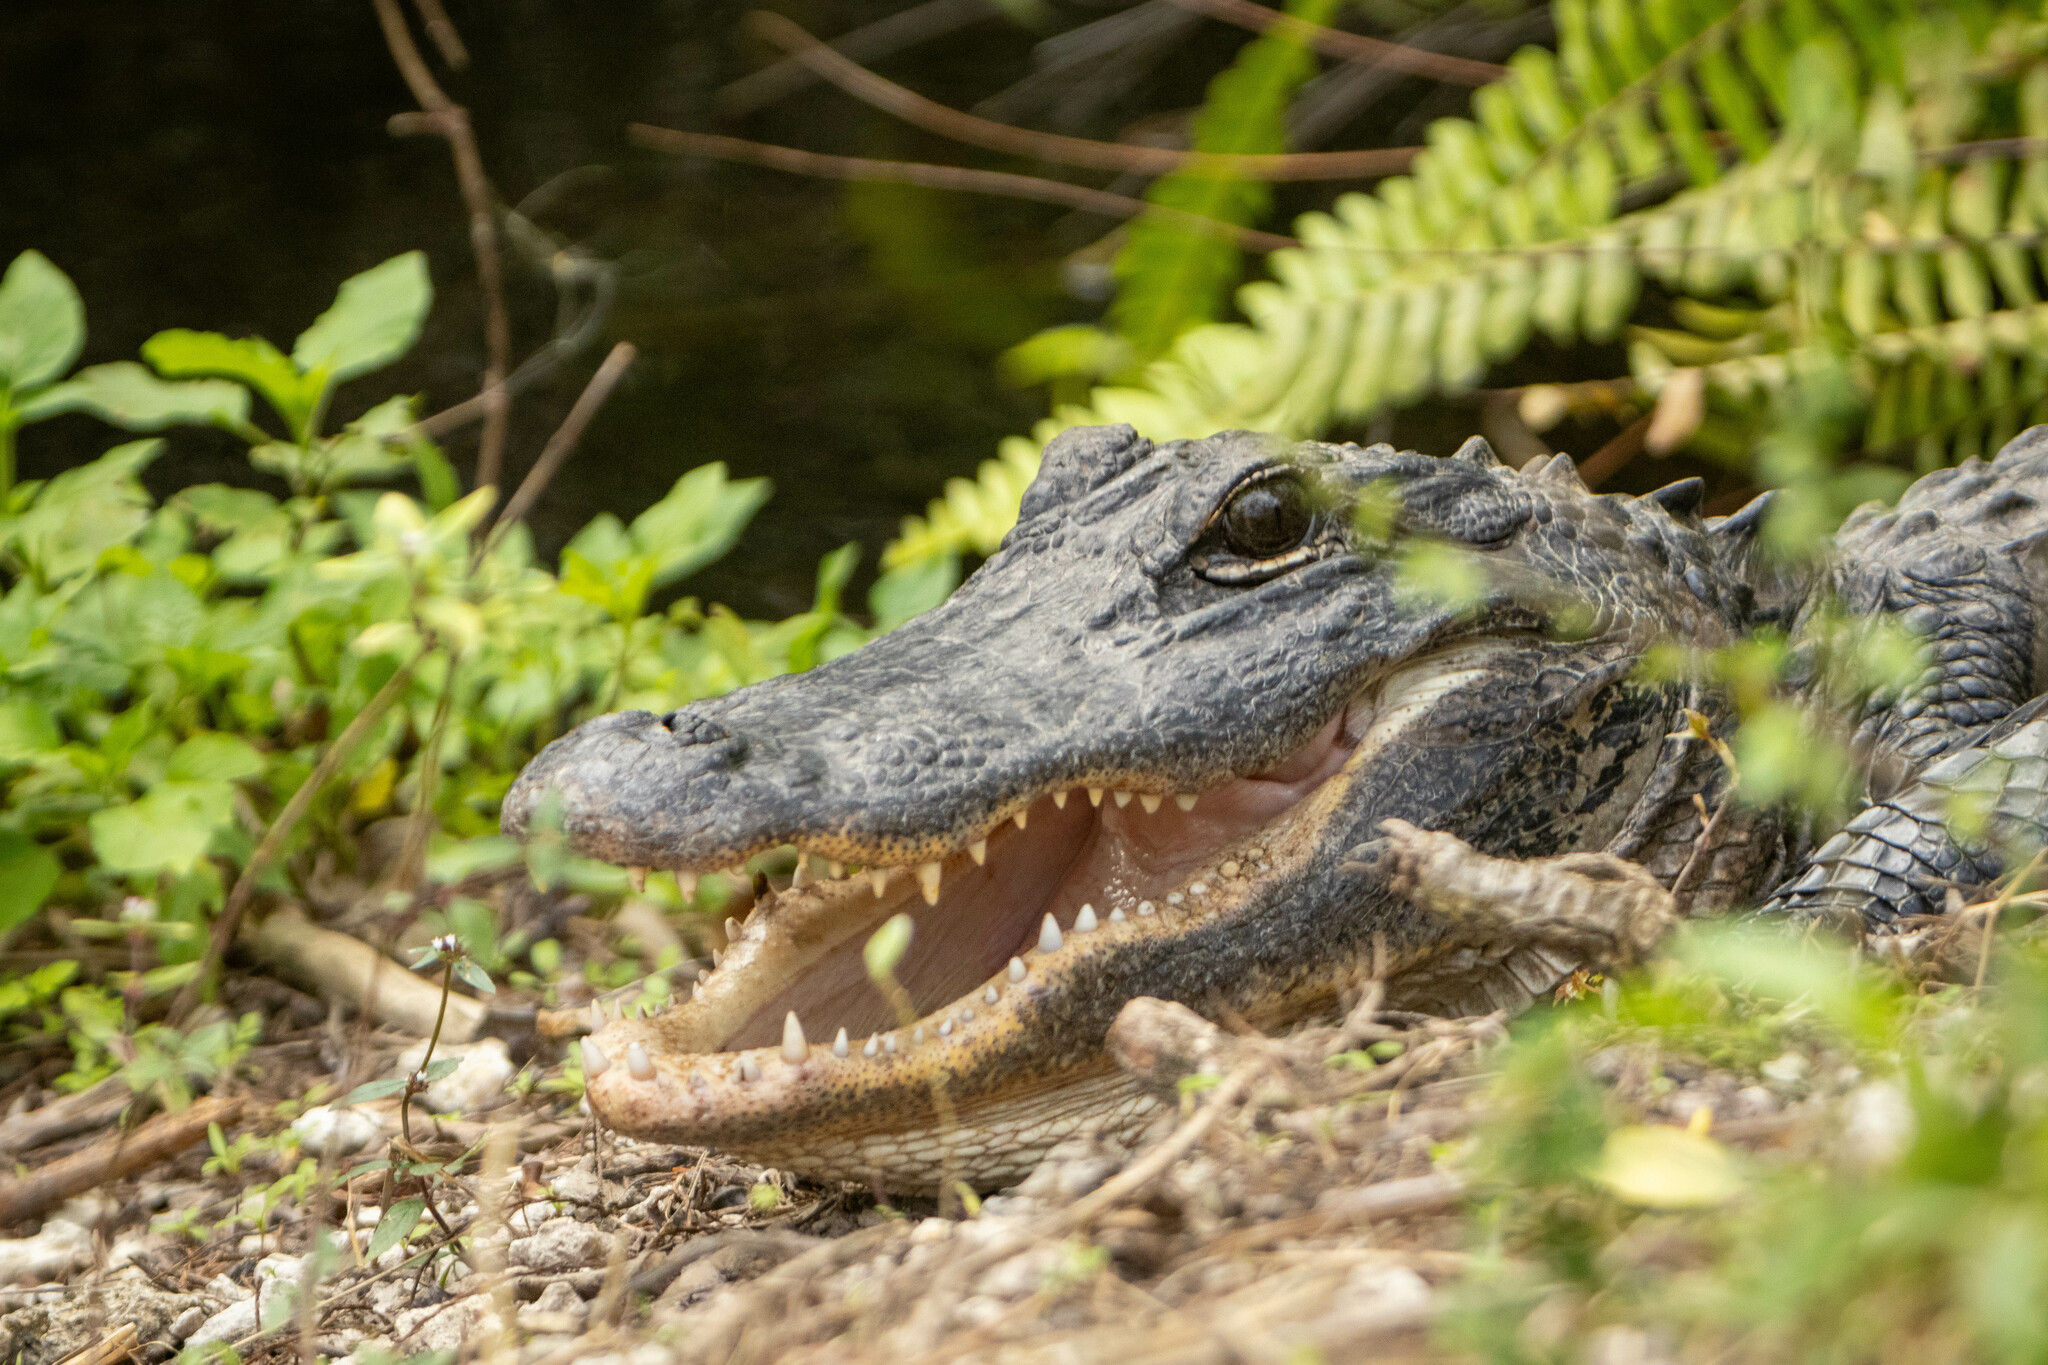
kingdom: Animalia
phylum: Chordata
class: Crocodylia
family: Alligatoridae
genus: Alligator
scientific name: Alligator mississippiensis
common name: American alligator
